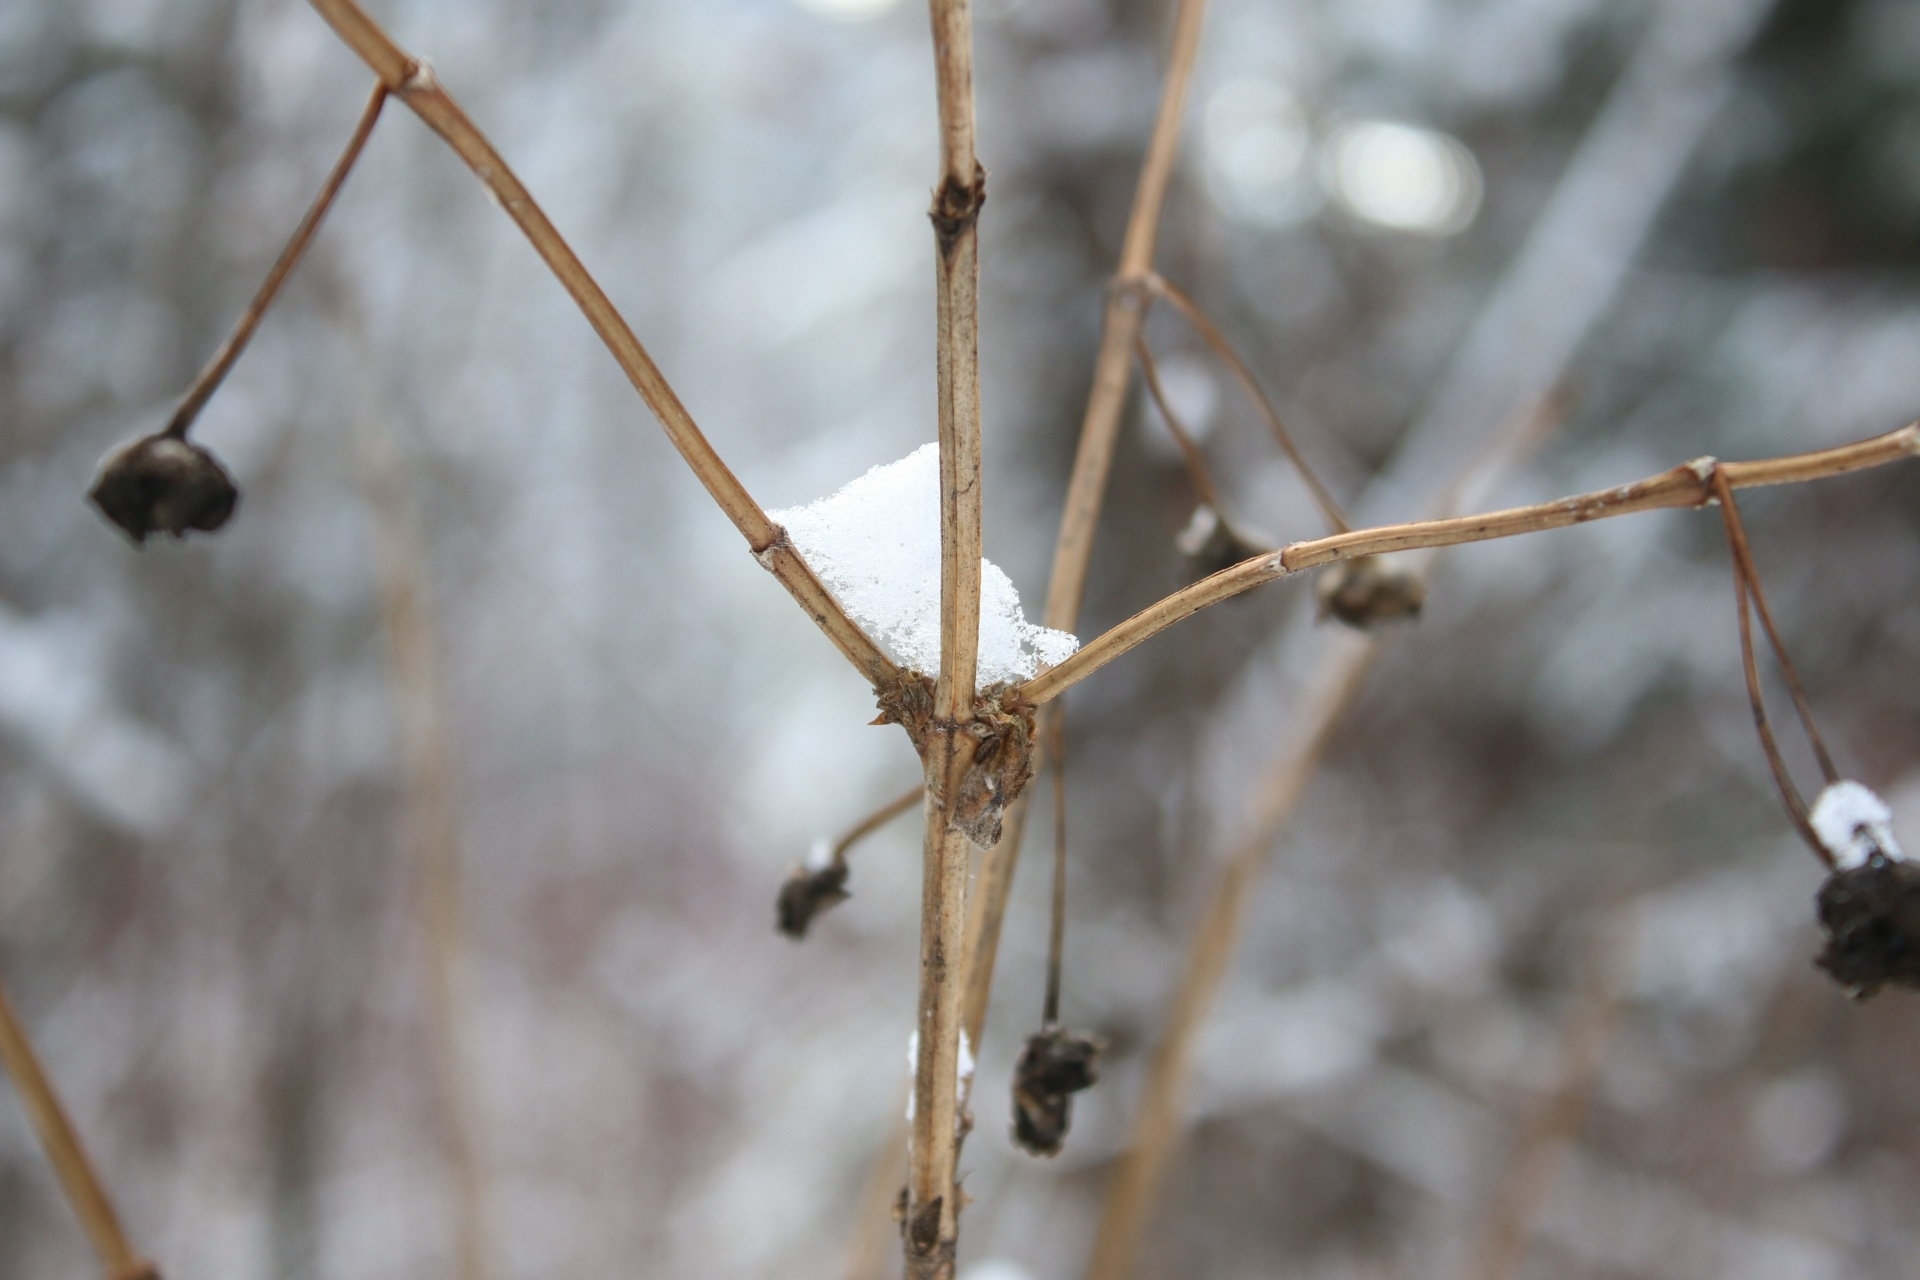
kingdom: Plantae
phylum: Tracheophyta
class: Magnoliopsida
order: Dipsacales
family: Caprifoliaceae
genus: Lonicera
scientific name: Lonicera involucrata
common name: Californian honeysuckle
